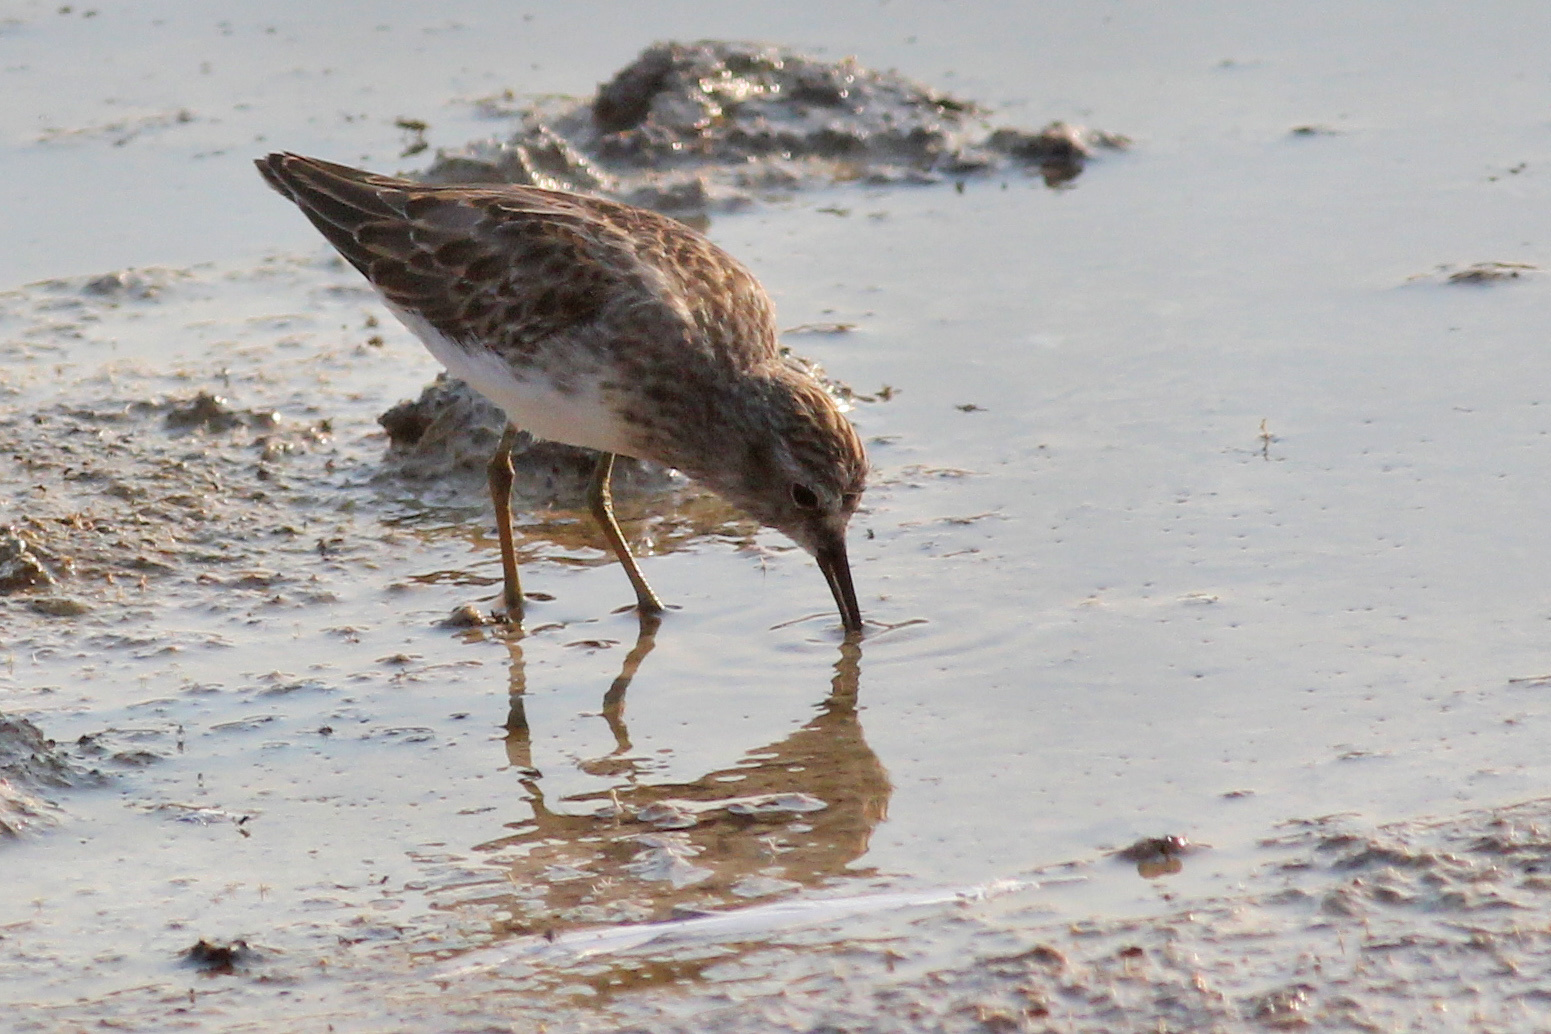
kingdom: Animalia
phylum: Chordata
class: Aves
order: Charadriiformes
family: Scolopacidae
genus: Calidris
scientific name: Calidris minutilla
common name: Least sandpiper
